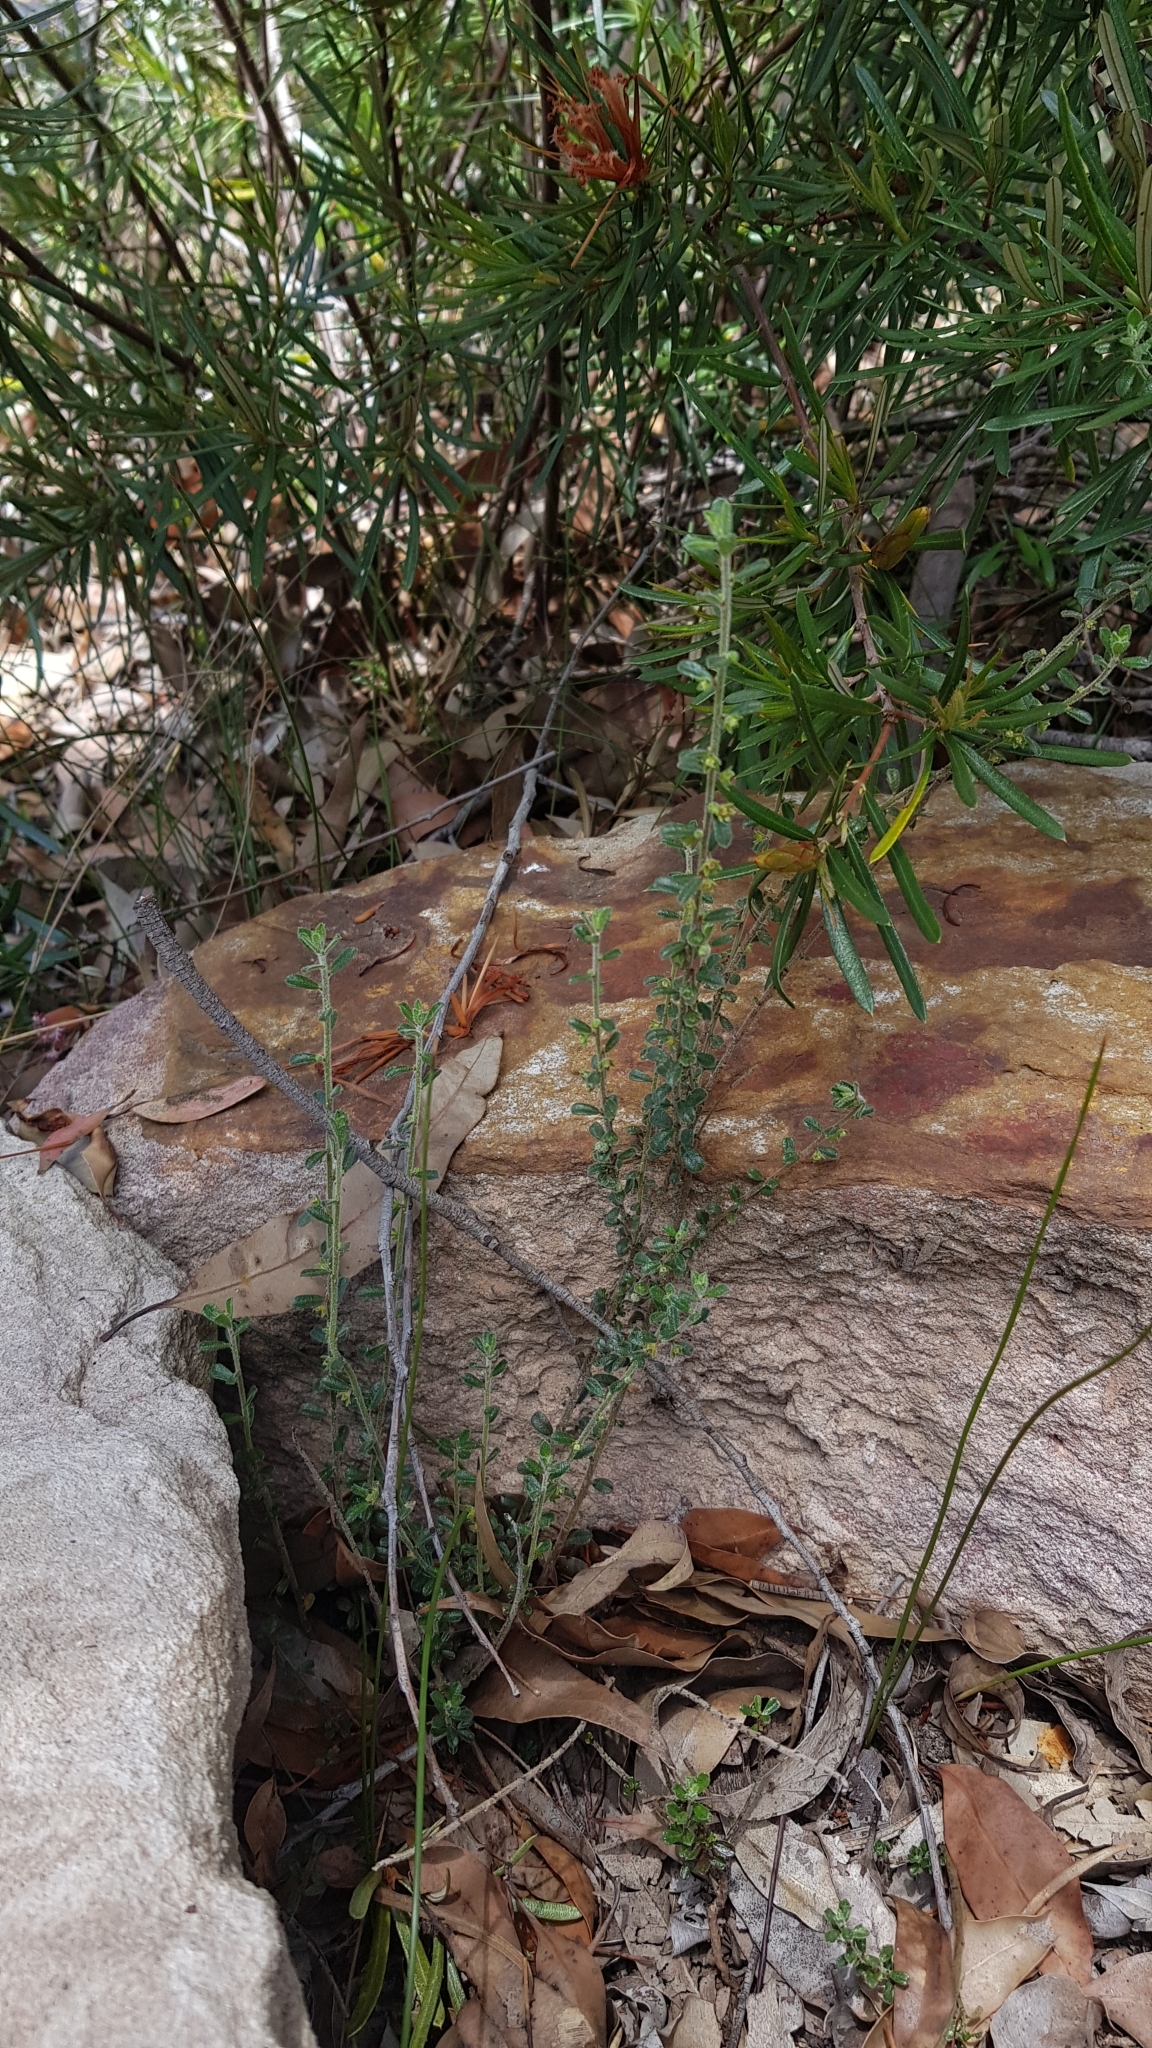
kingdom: Plantae
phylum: Tracheophyta
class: Magnoliopsida
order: Malpighiales
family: Phyllanthaceae
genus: Phyllanthus
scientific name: Phyllanthus hirtellus
